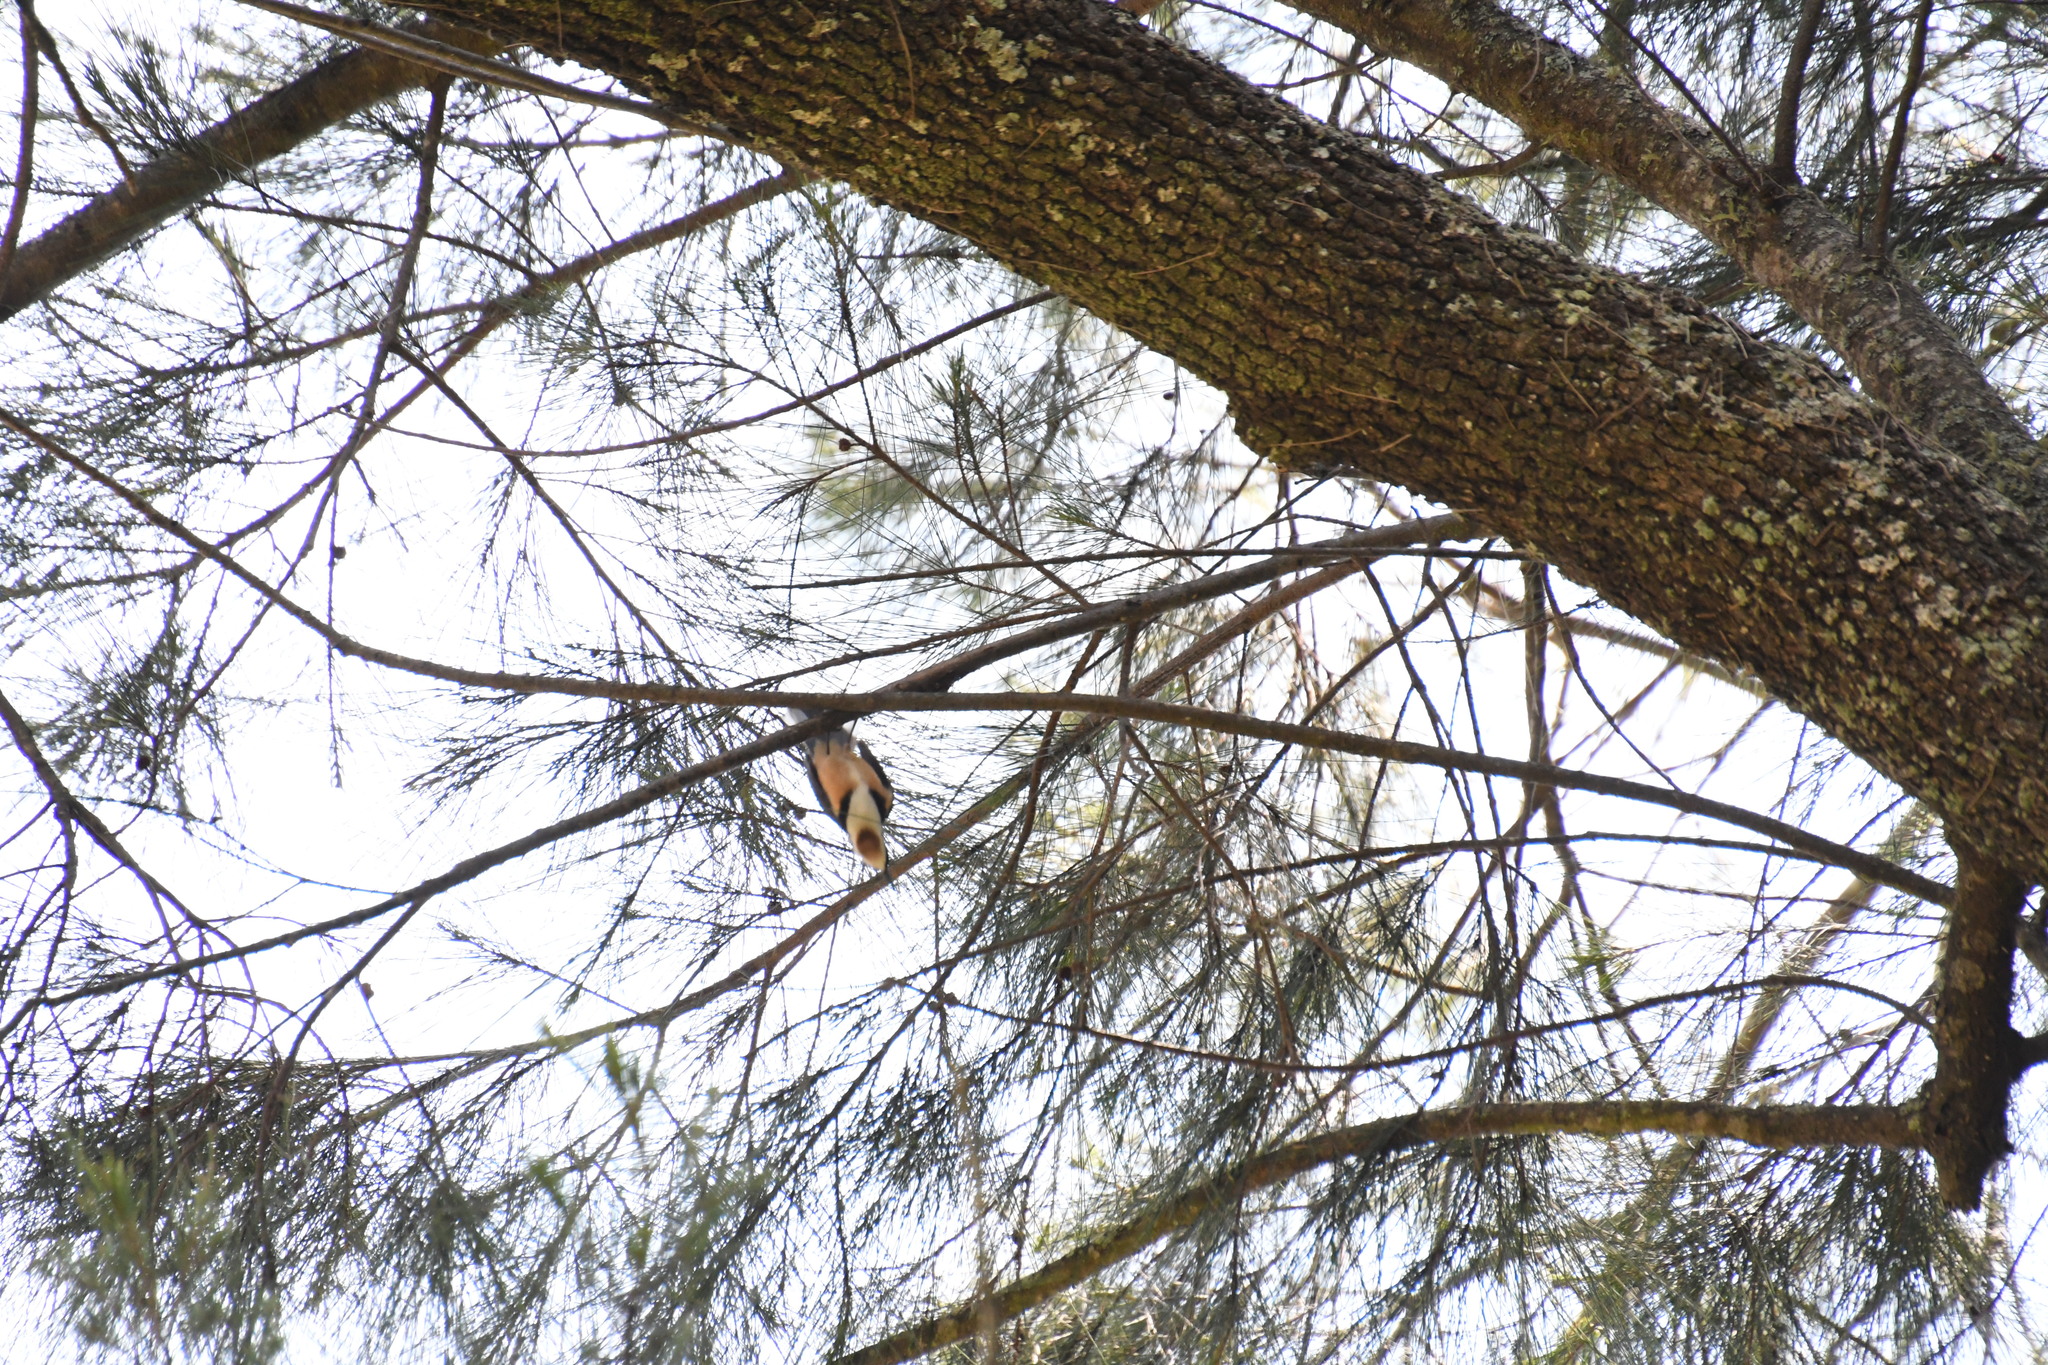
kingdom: Animalia
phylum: Chordata
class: Aves
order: Passeriformes
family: Meliphagidae
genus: Acanthorhynchus
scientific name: Acanthorhynchus tenuirostris
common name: Eastern spinebill
